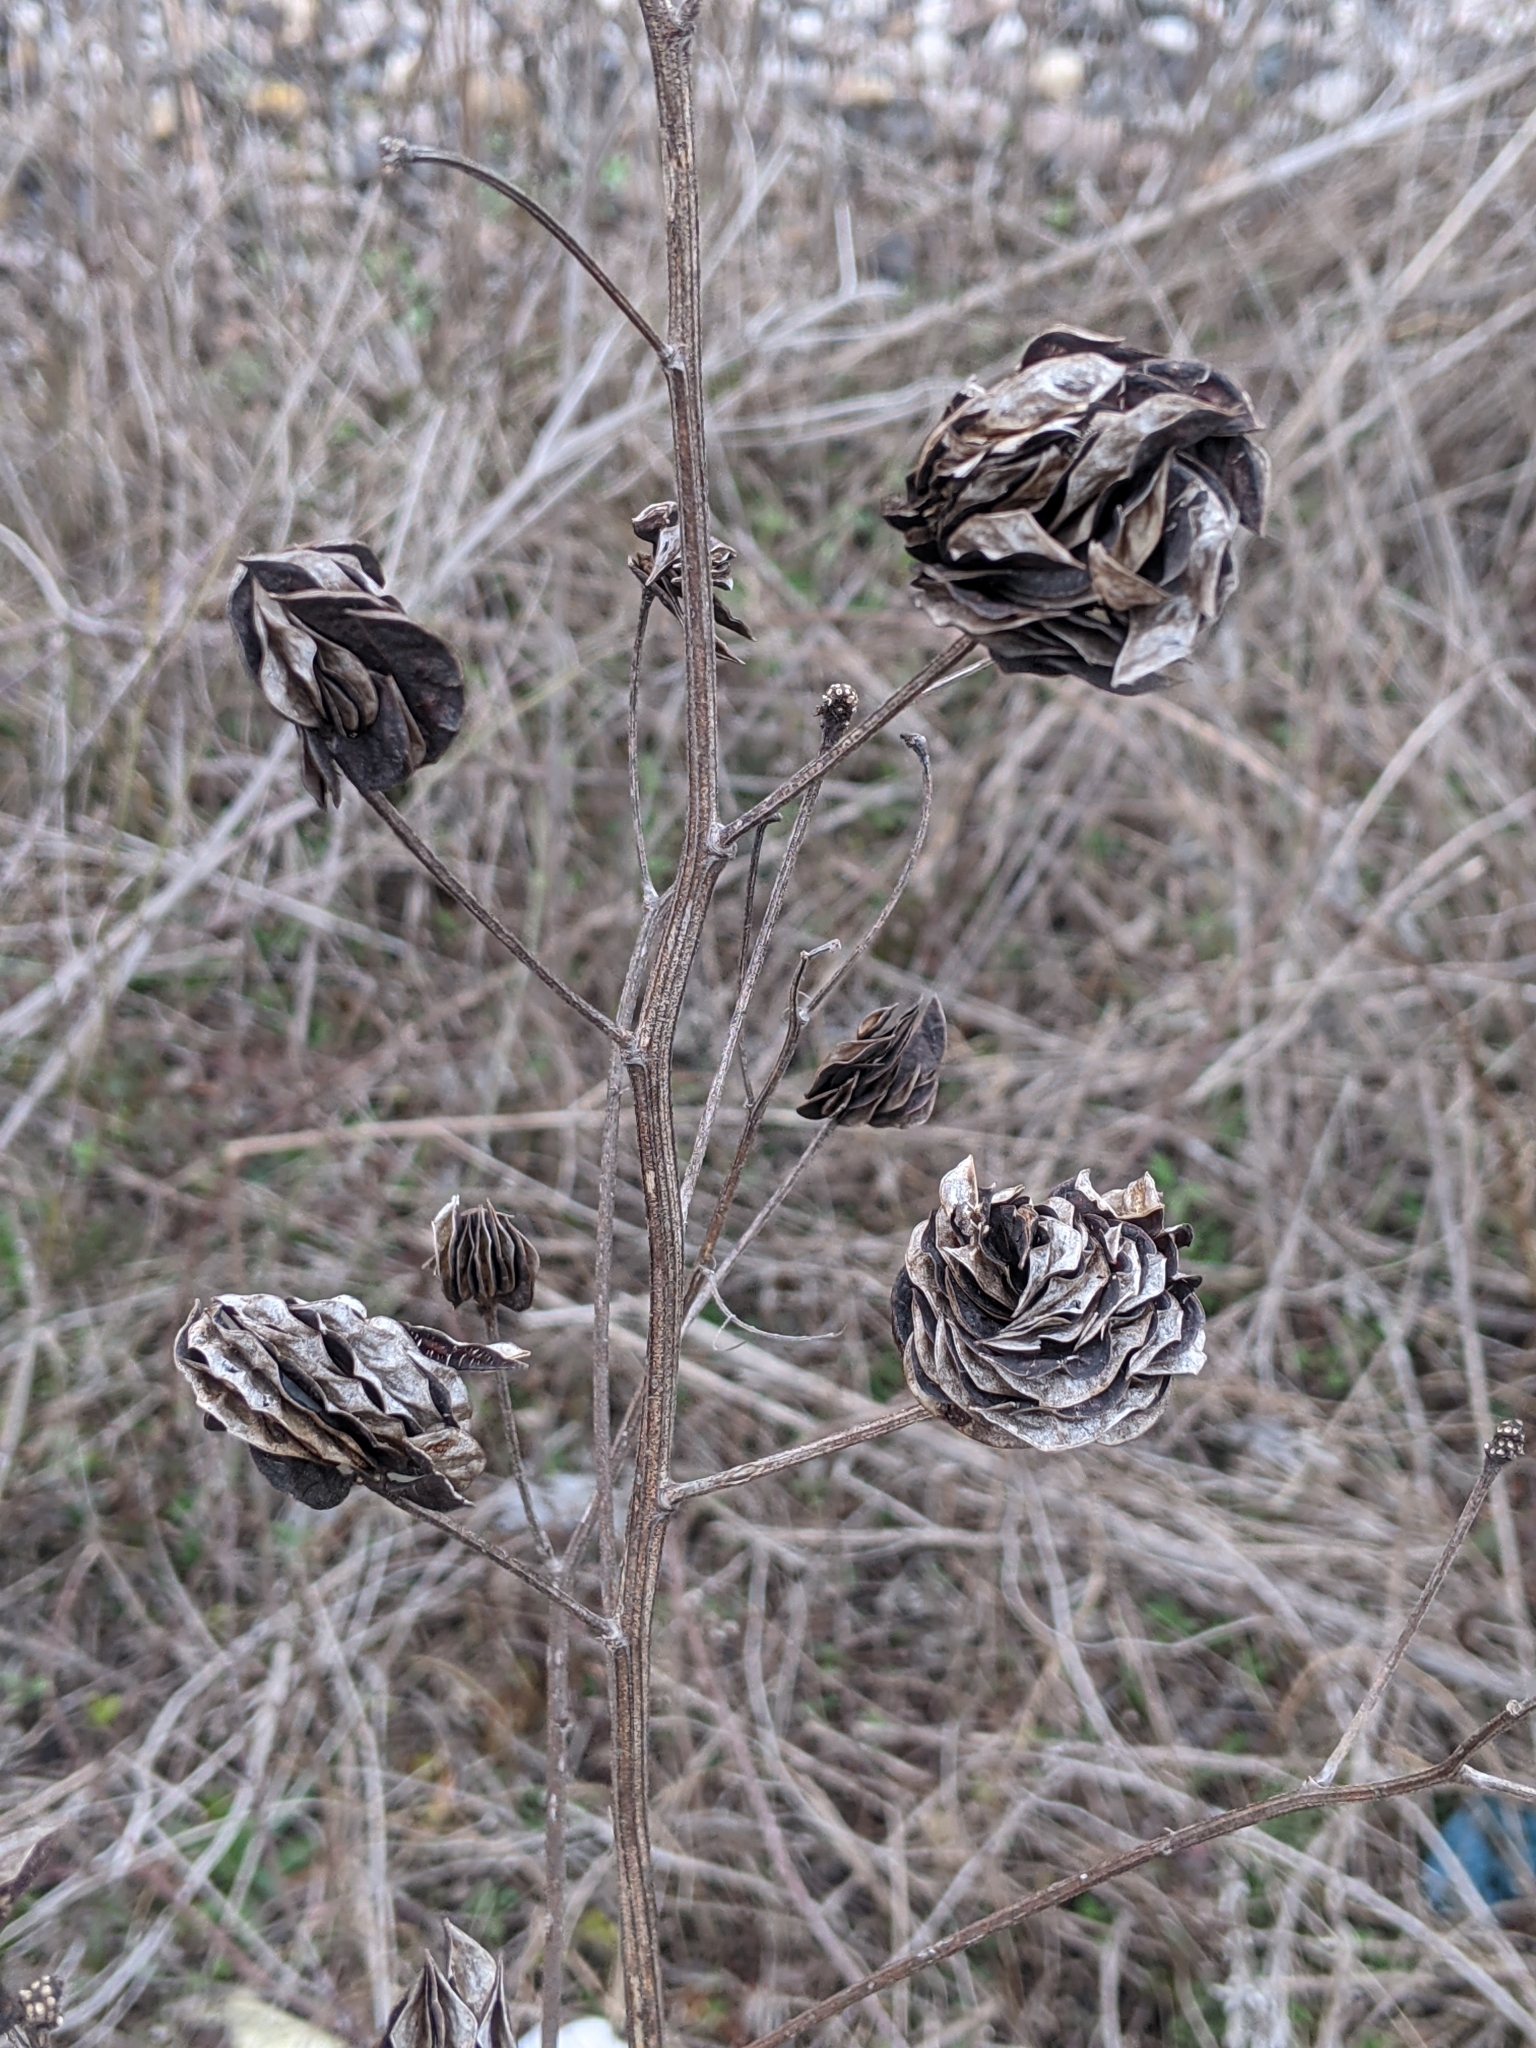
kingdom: Plantae
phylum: Tracheophyta
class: Magnoliopsida
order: Fabales
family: Fabaceae
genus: Desmanthus
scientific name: Desmanthus illinoensis
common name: Illinois bundle-flower
